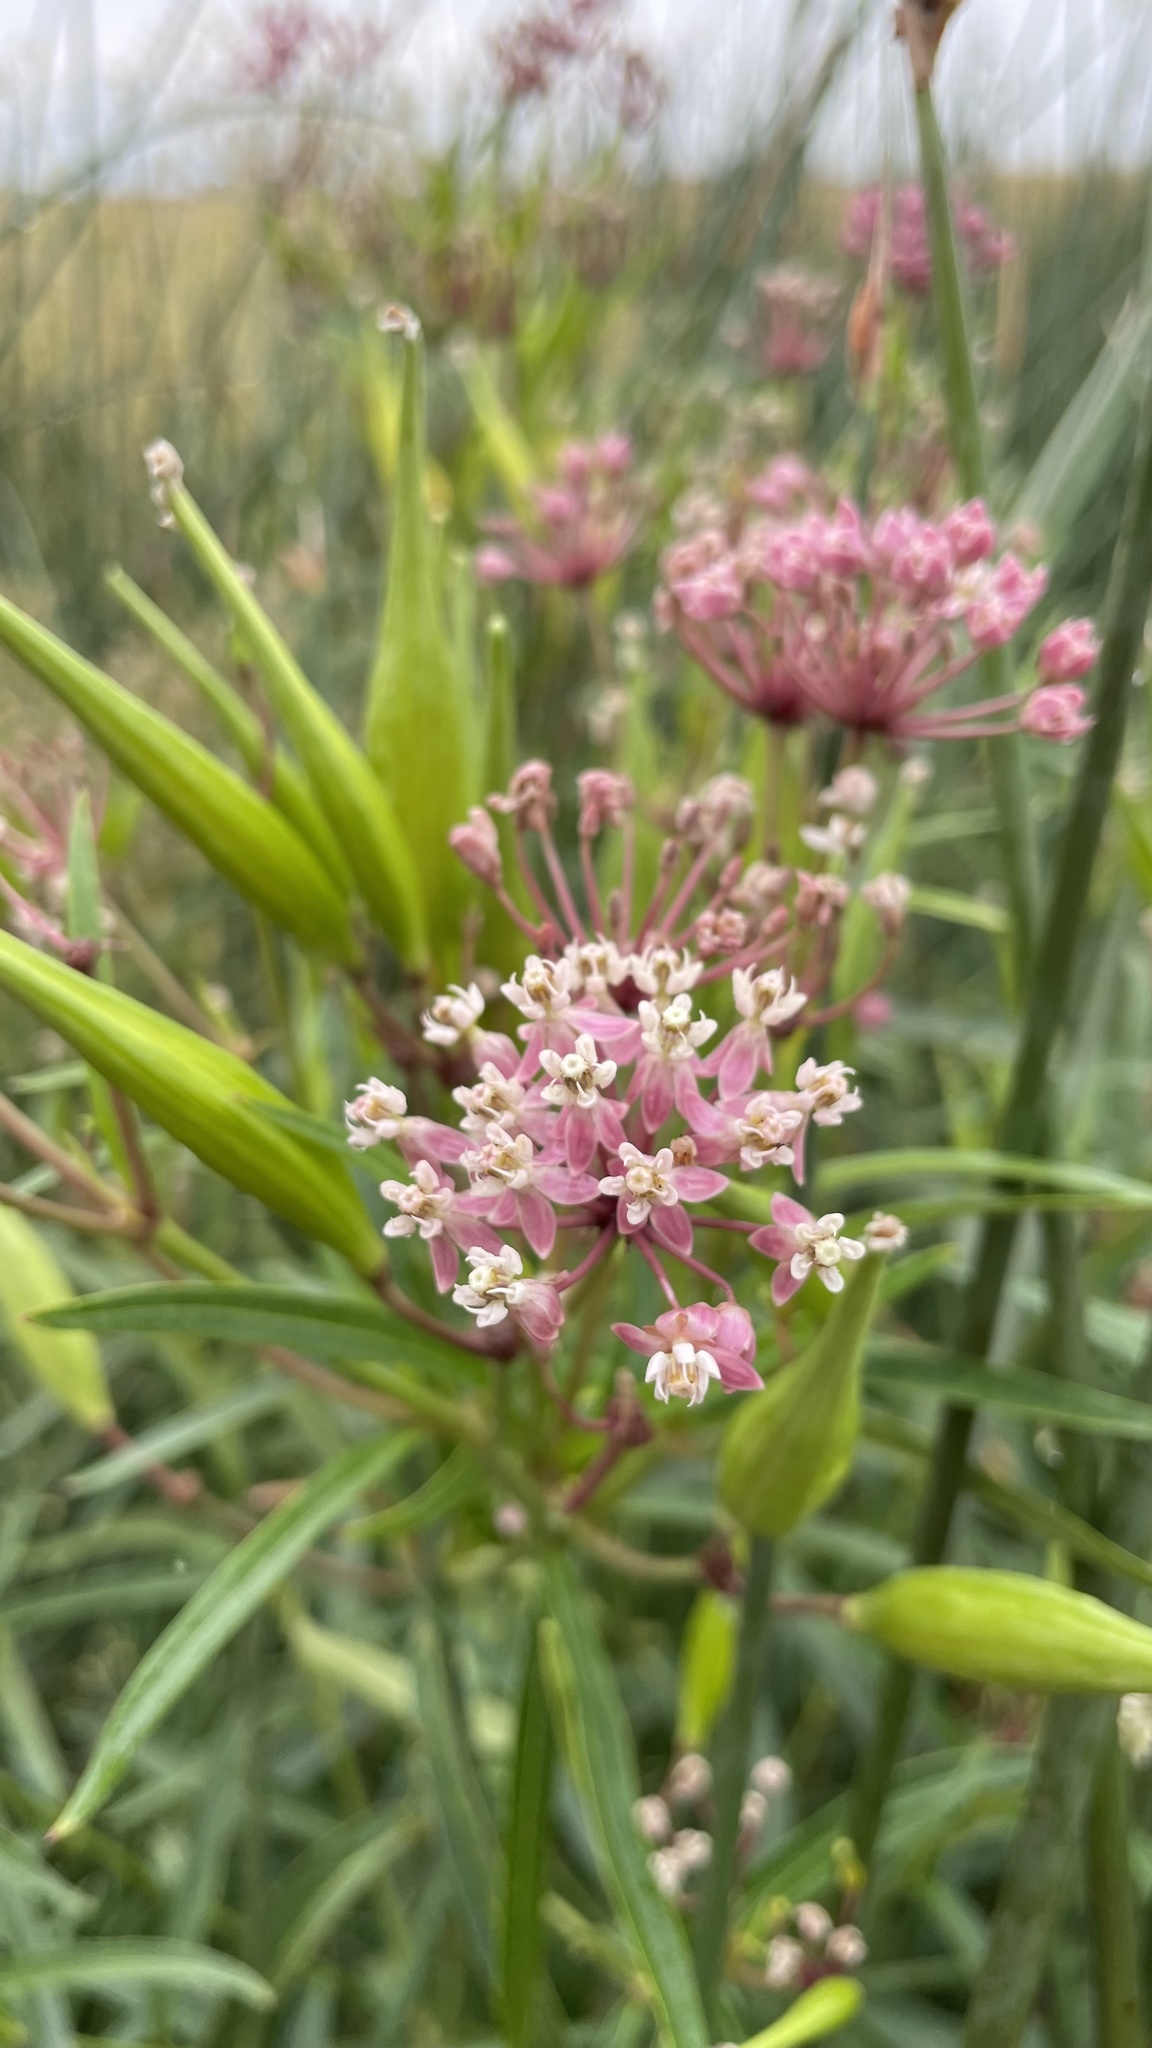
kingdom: Plantae
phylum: Tracheophyta
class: Magnoliopsida
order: Gentianales
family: Apocynaceae
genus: Asclepias
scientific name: Asclepias incarnata
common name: Swamp milkweed
